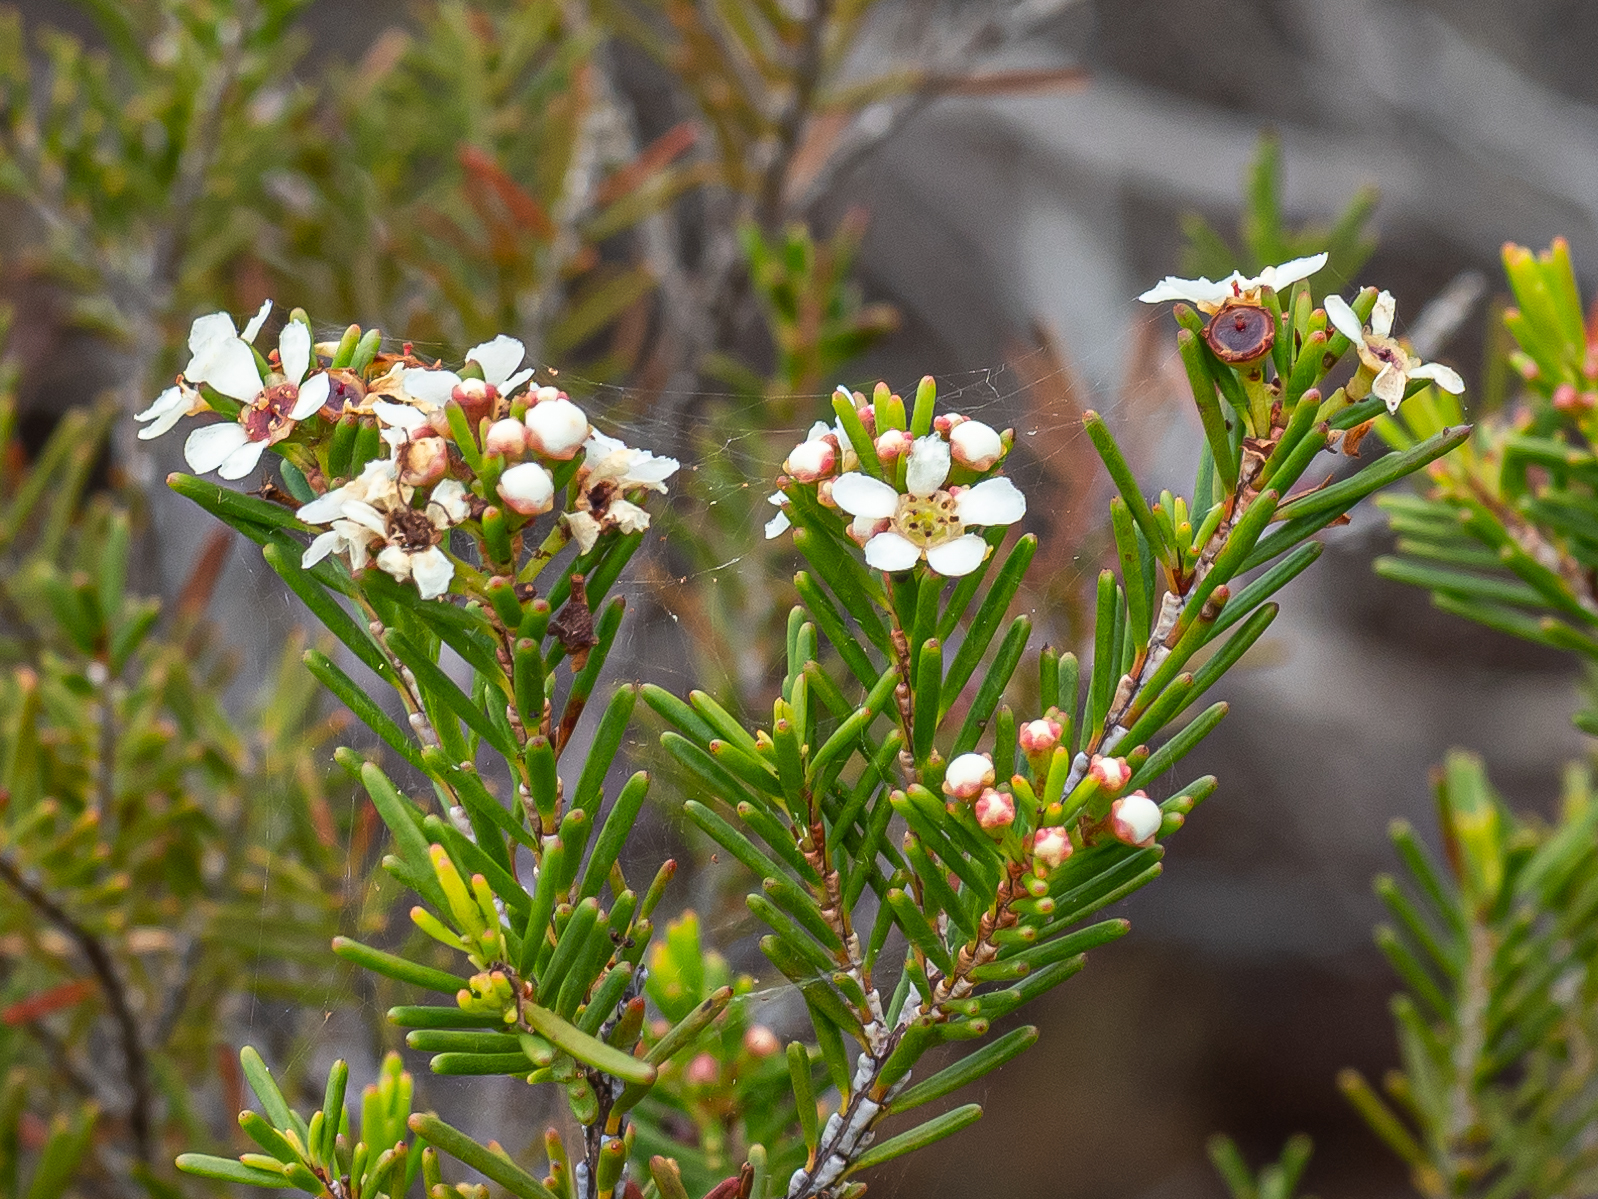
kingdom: Plantae
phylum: Tracheophyta
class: Magnoliopsida
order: Myrtales
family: Myrtaceae
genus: Sannantha
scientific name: Sannantha leratii
